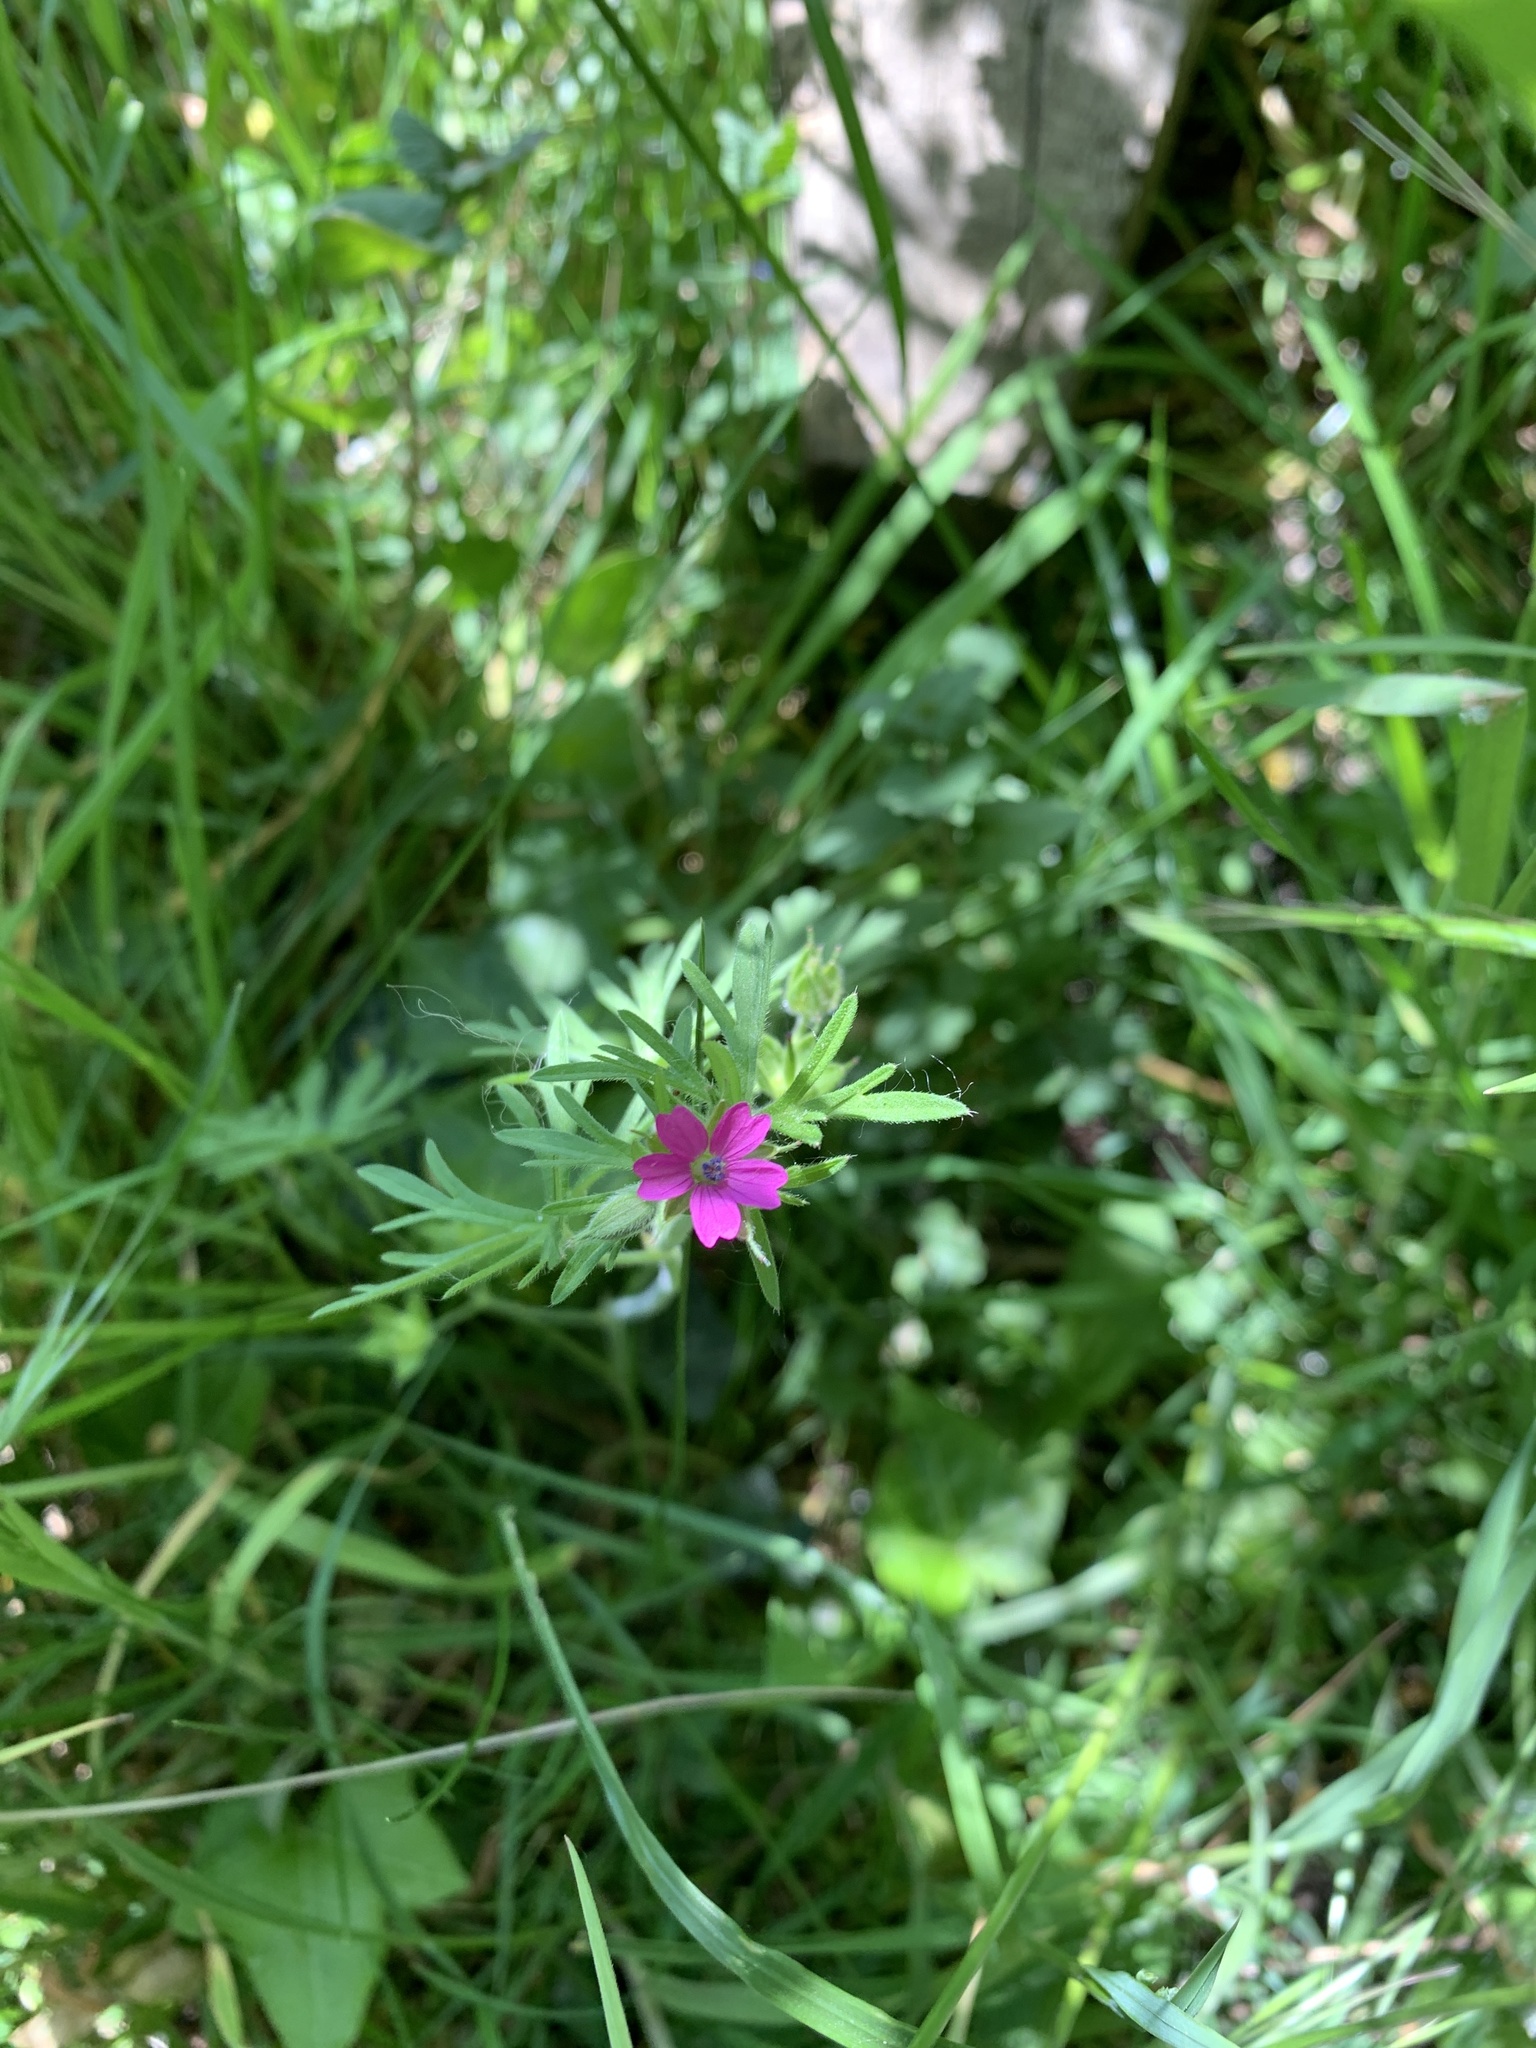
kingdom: Plantae
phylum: Tracheophyta
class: Magnoliopsida
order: Geraniales
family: Geraniaceae
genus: Geranium
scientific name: Geranium dissectum
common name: Cut-leaved crane's-bill
